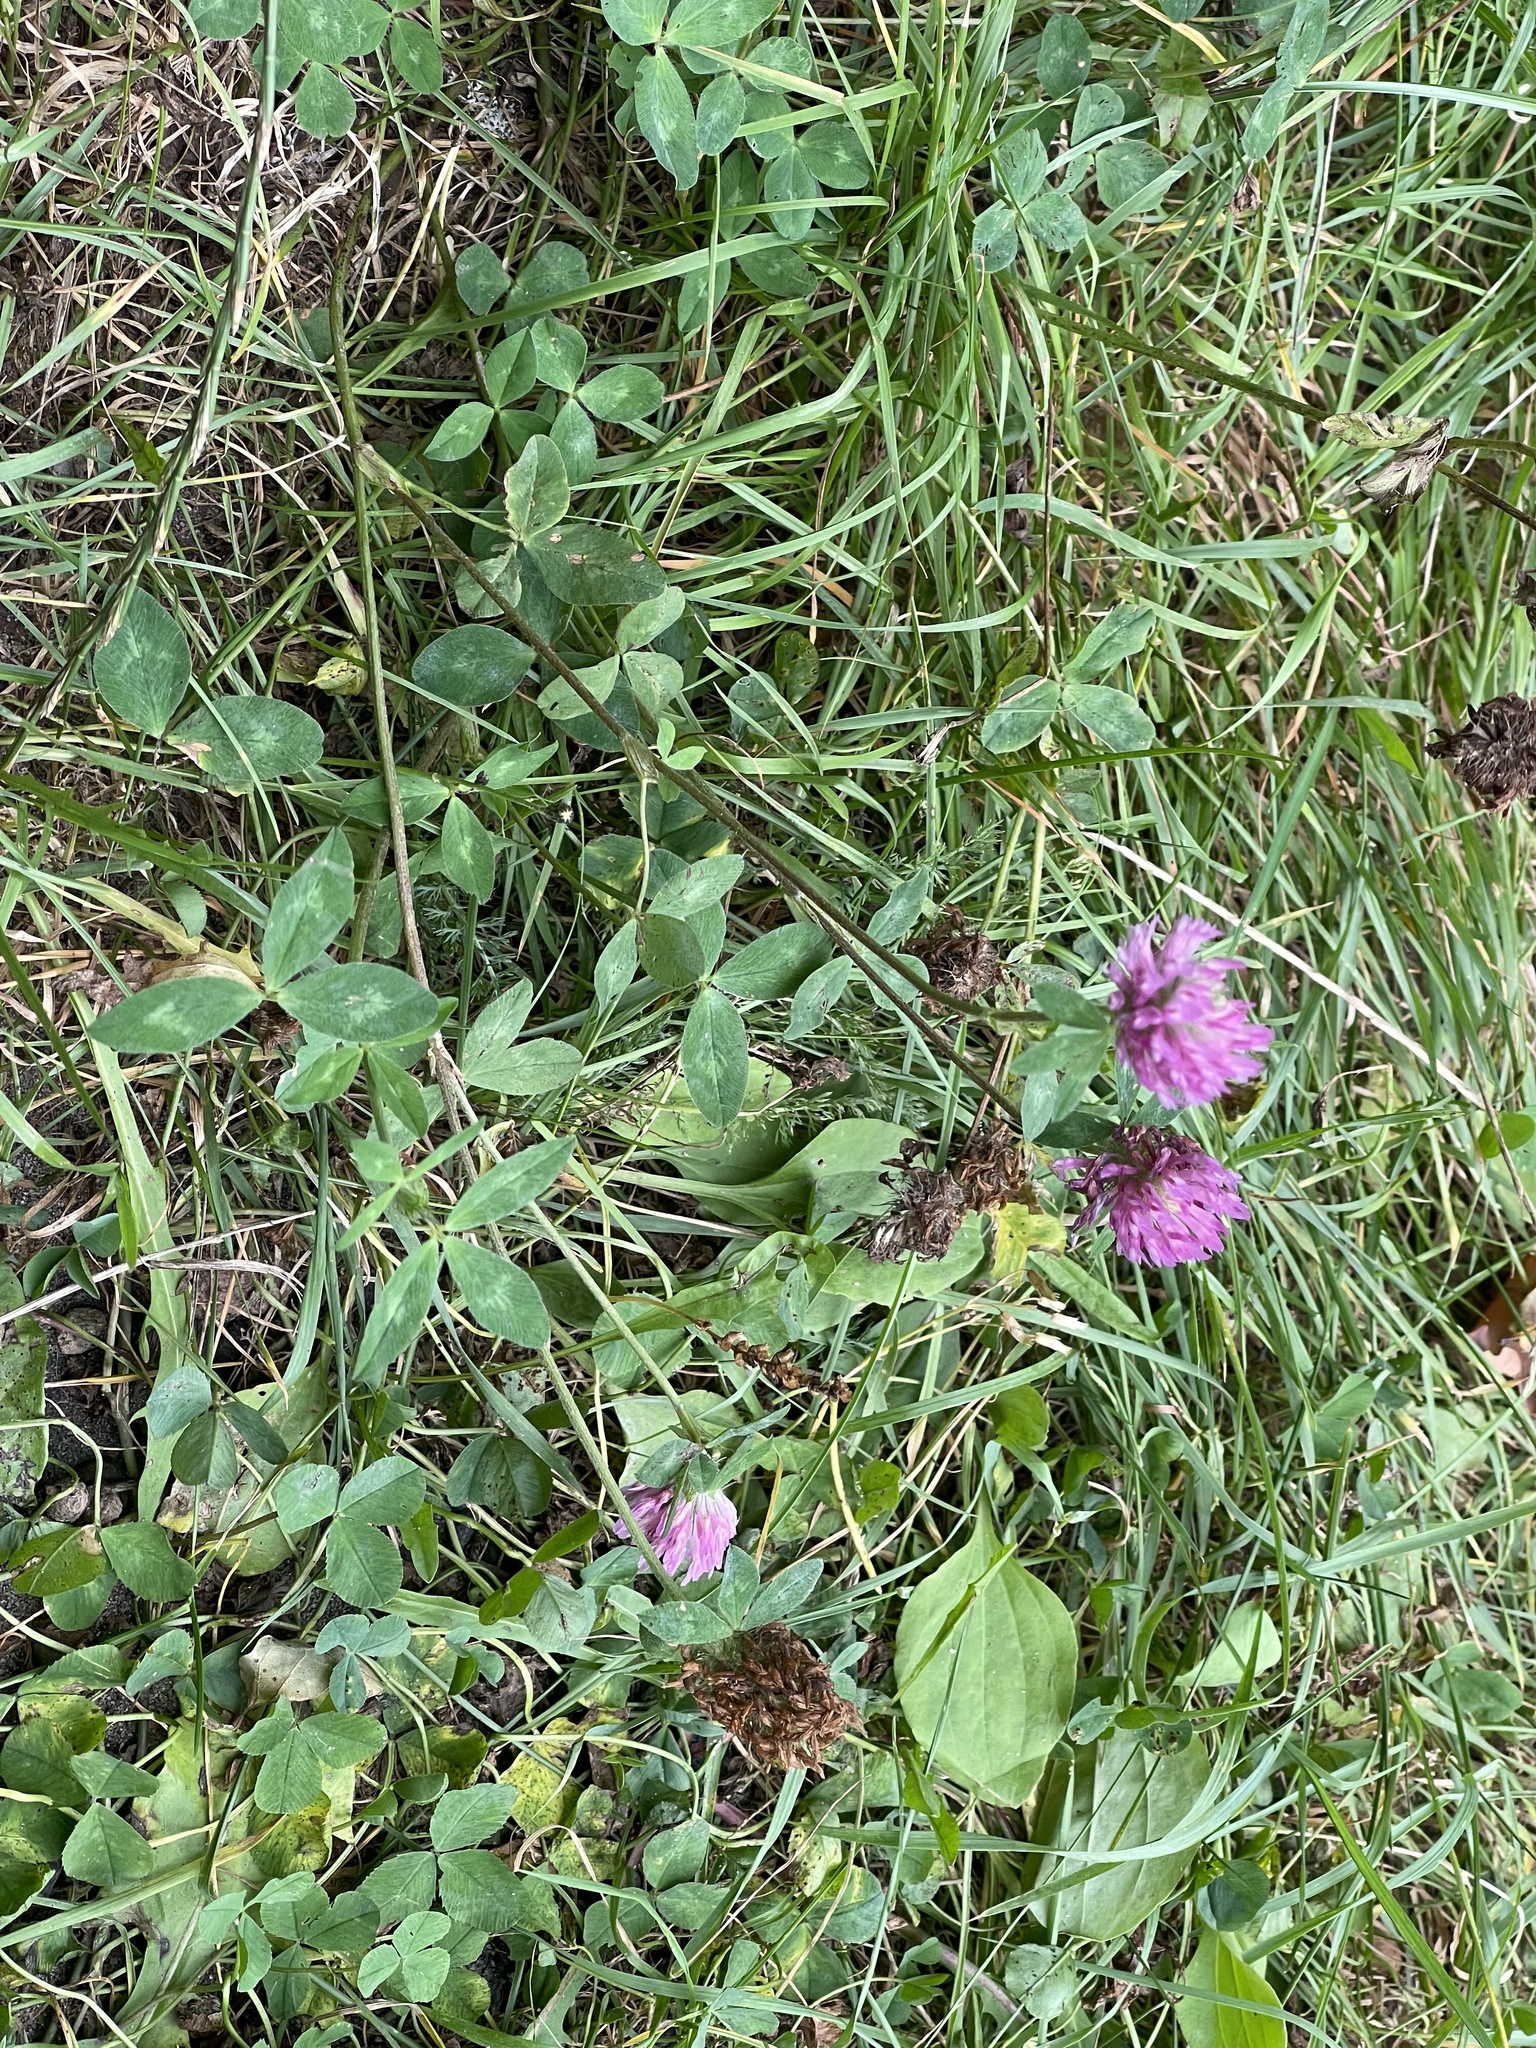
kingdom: Plantae
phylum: Tracheophyta
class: Magnoliopsida
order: Fabales
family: Fabaceae
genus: Trifolium
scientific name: Trifolium pratense
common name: Red clover
